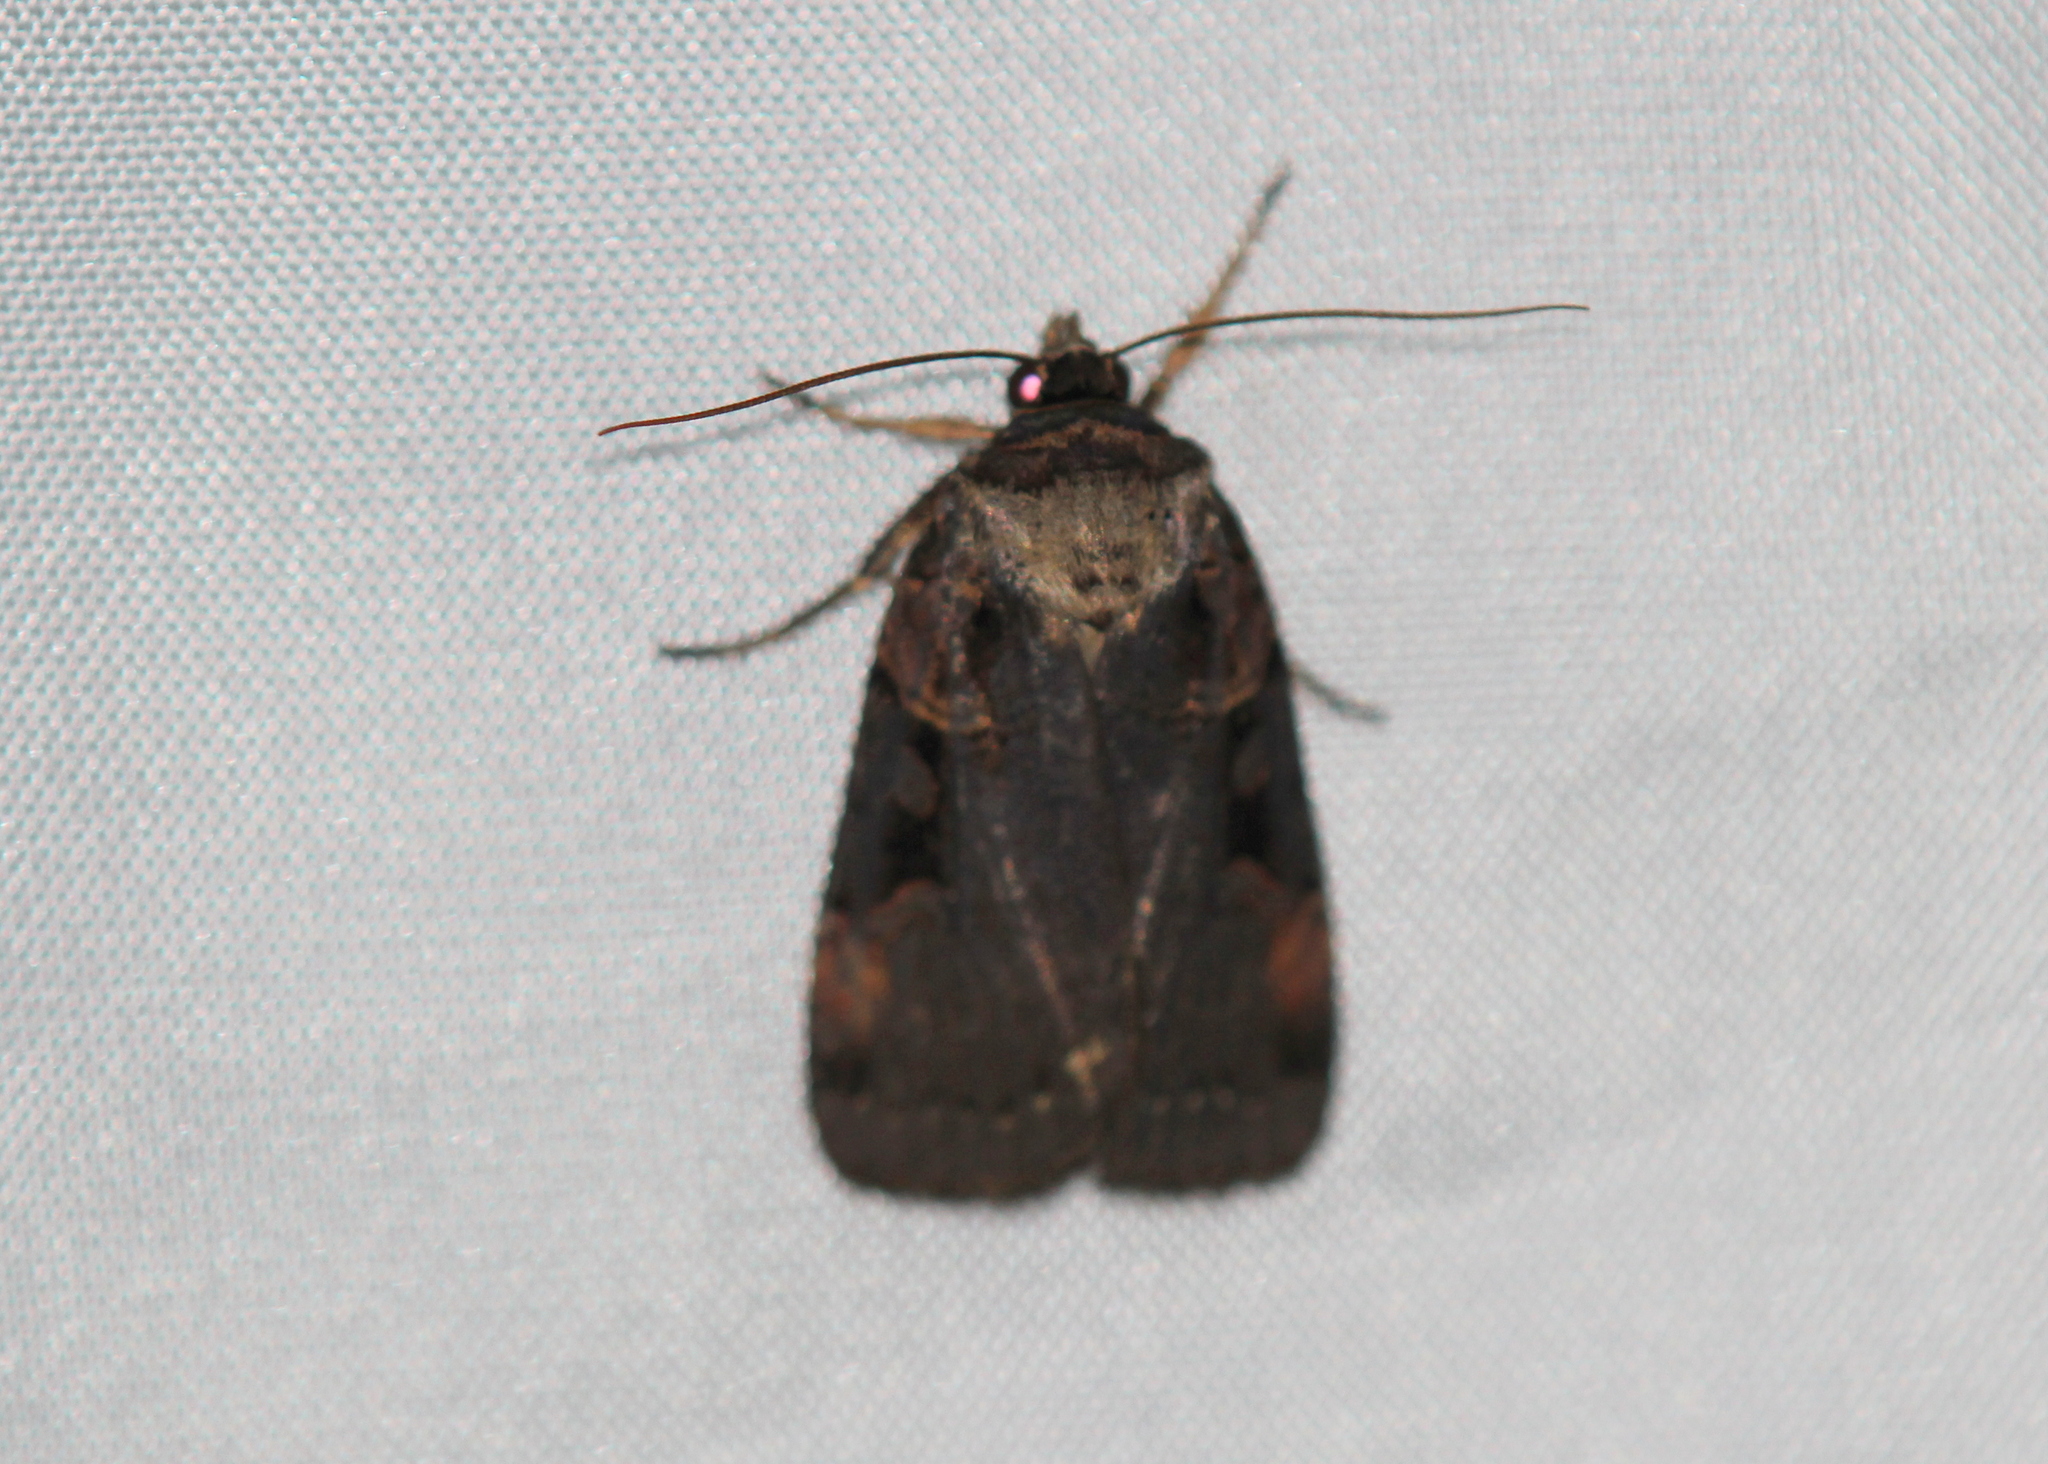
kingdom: Animalia
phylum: Arthropoda
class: Insecta
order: Lepidoptera
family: Noctuidae
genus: Pseudohermonassa
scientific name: Pseudohermonassa bicarnea
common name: Pink spotted dart
